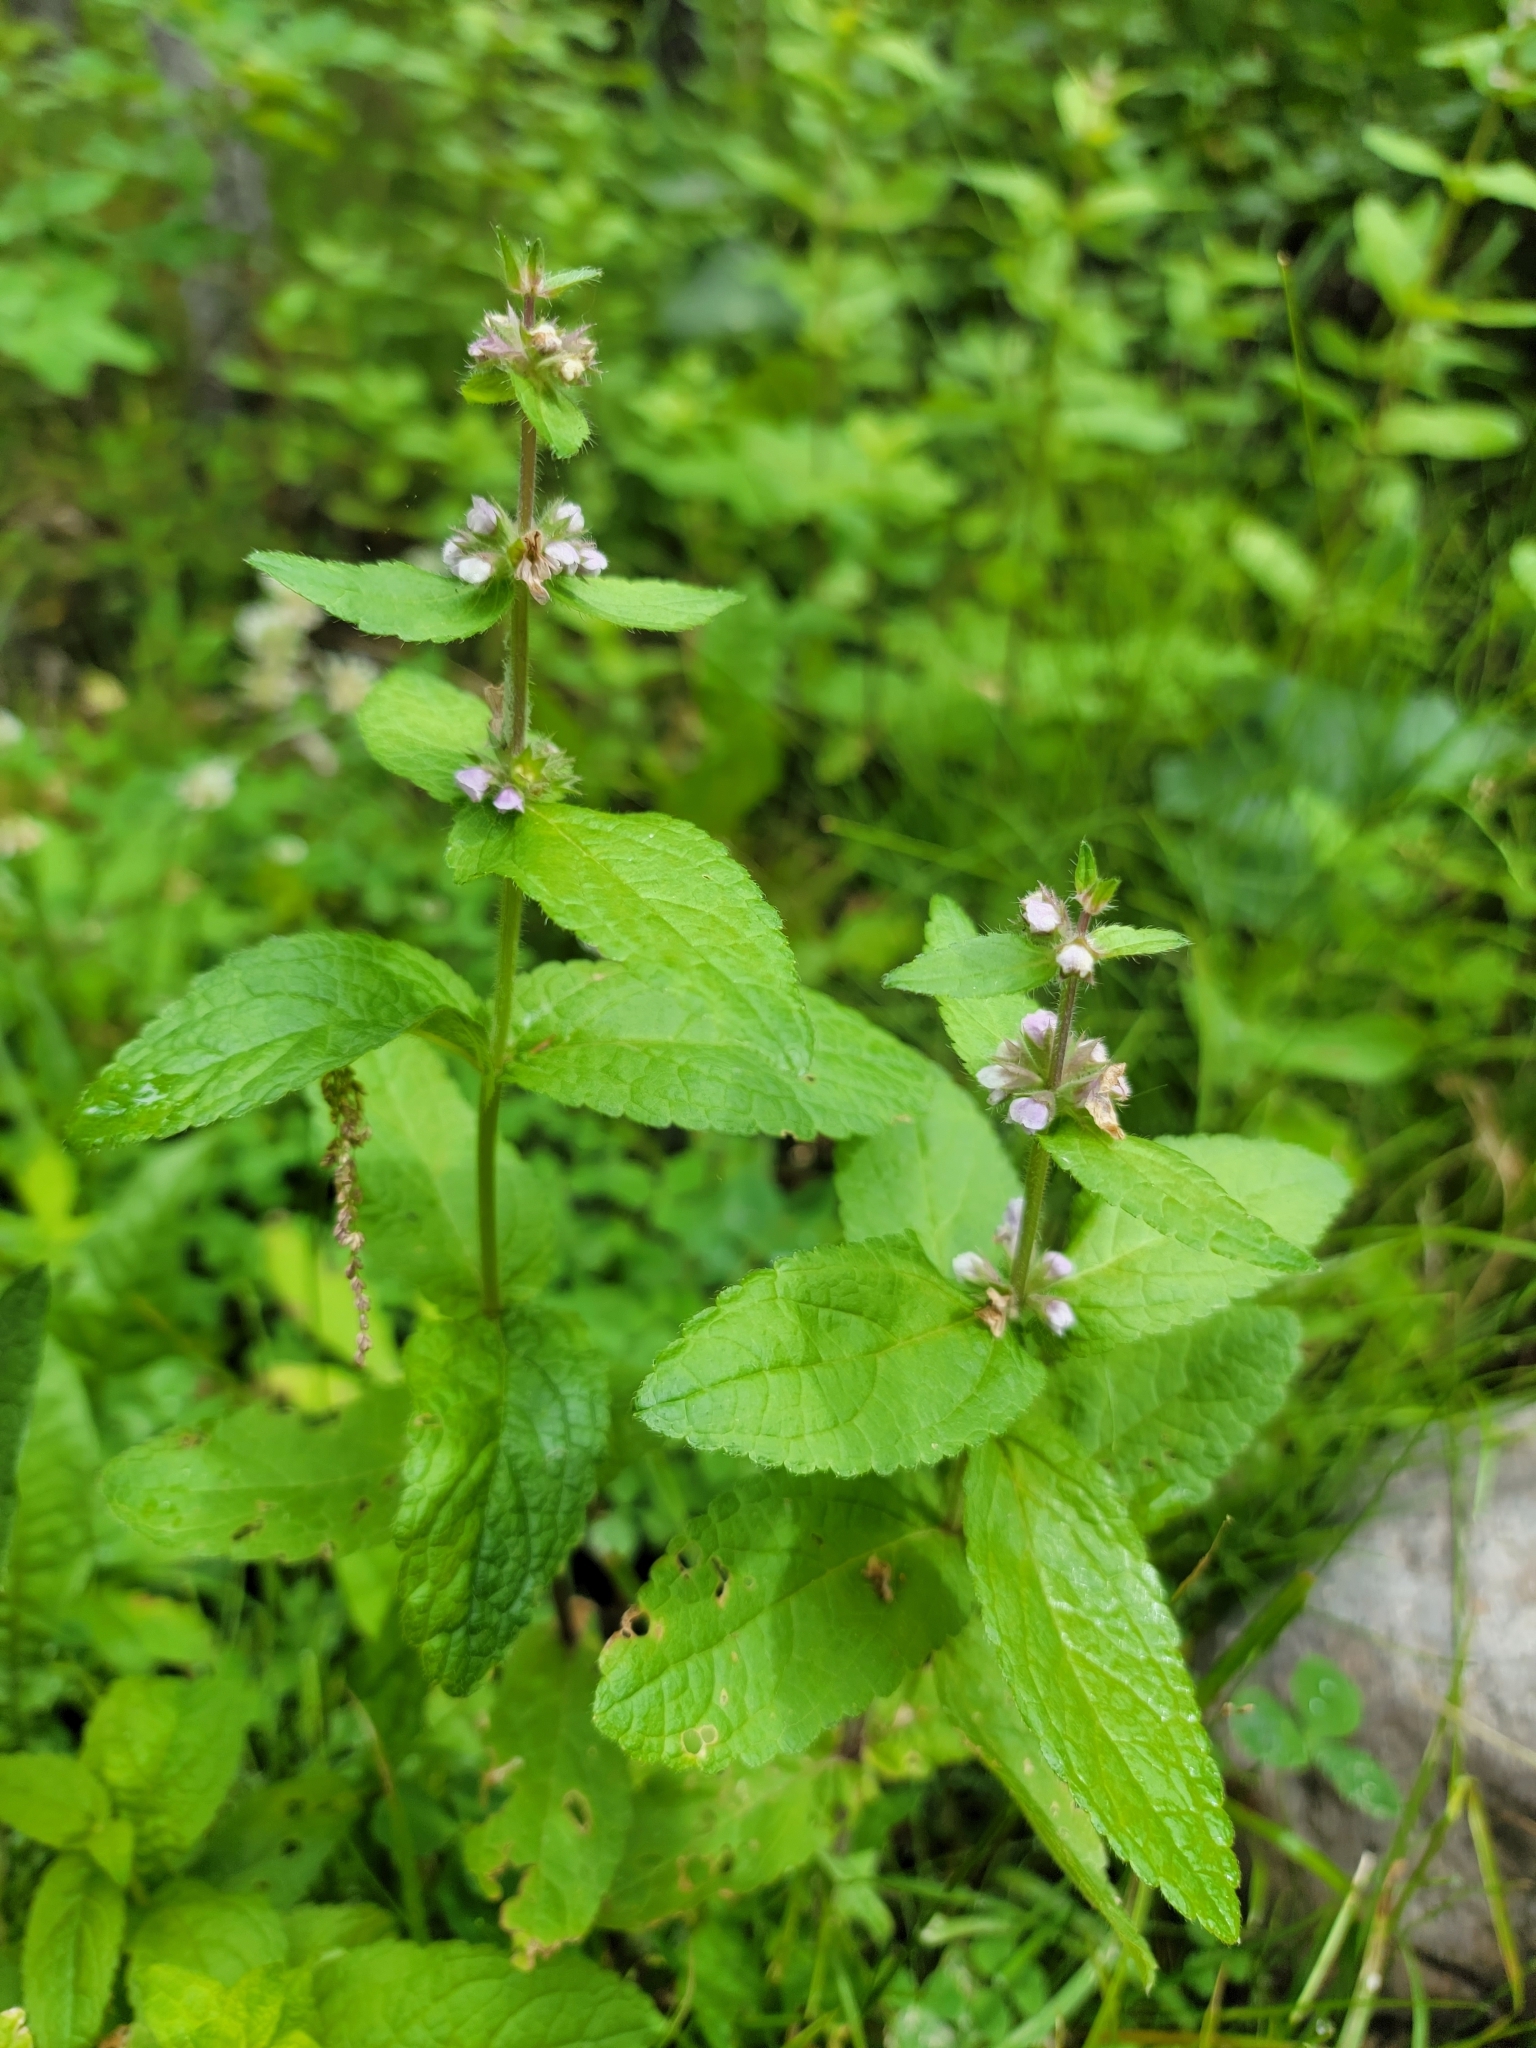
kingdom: Plantae
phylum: Tracheophyta
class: Magnoliopsida
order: Lamiales
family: Lamiaceae
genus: Stachys
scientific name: Stachys pilosa
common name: Hairy hedge-nettle
